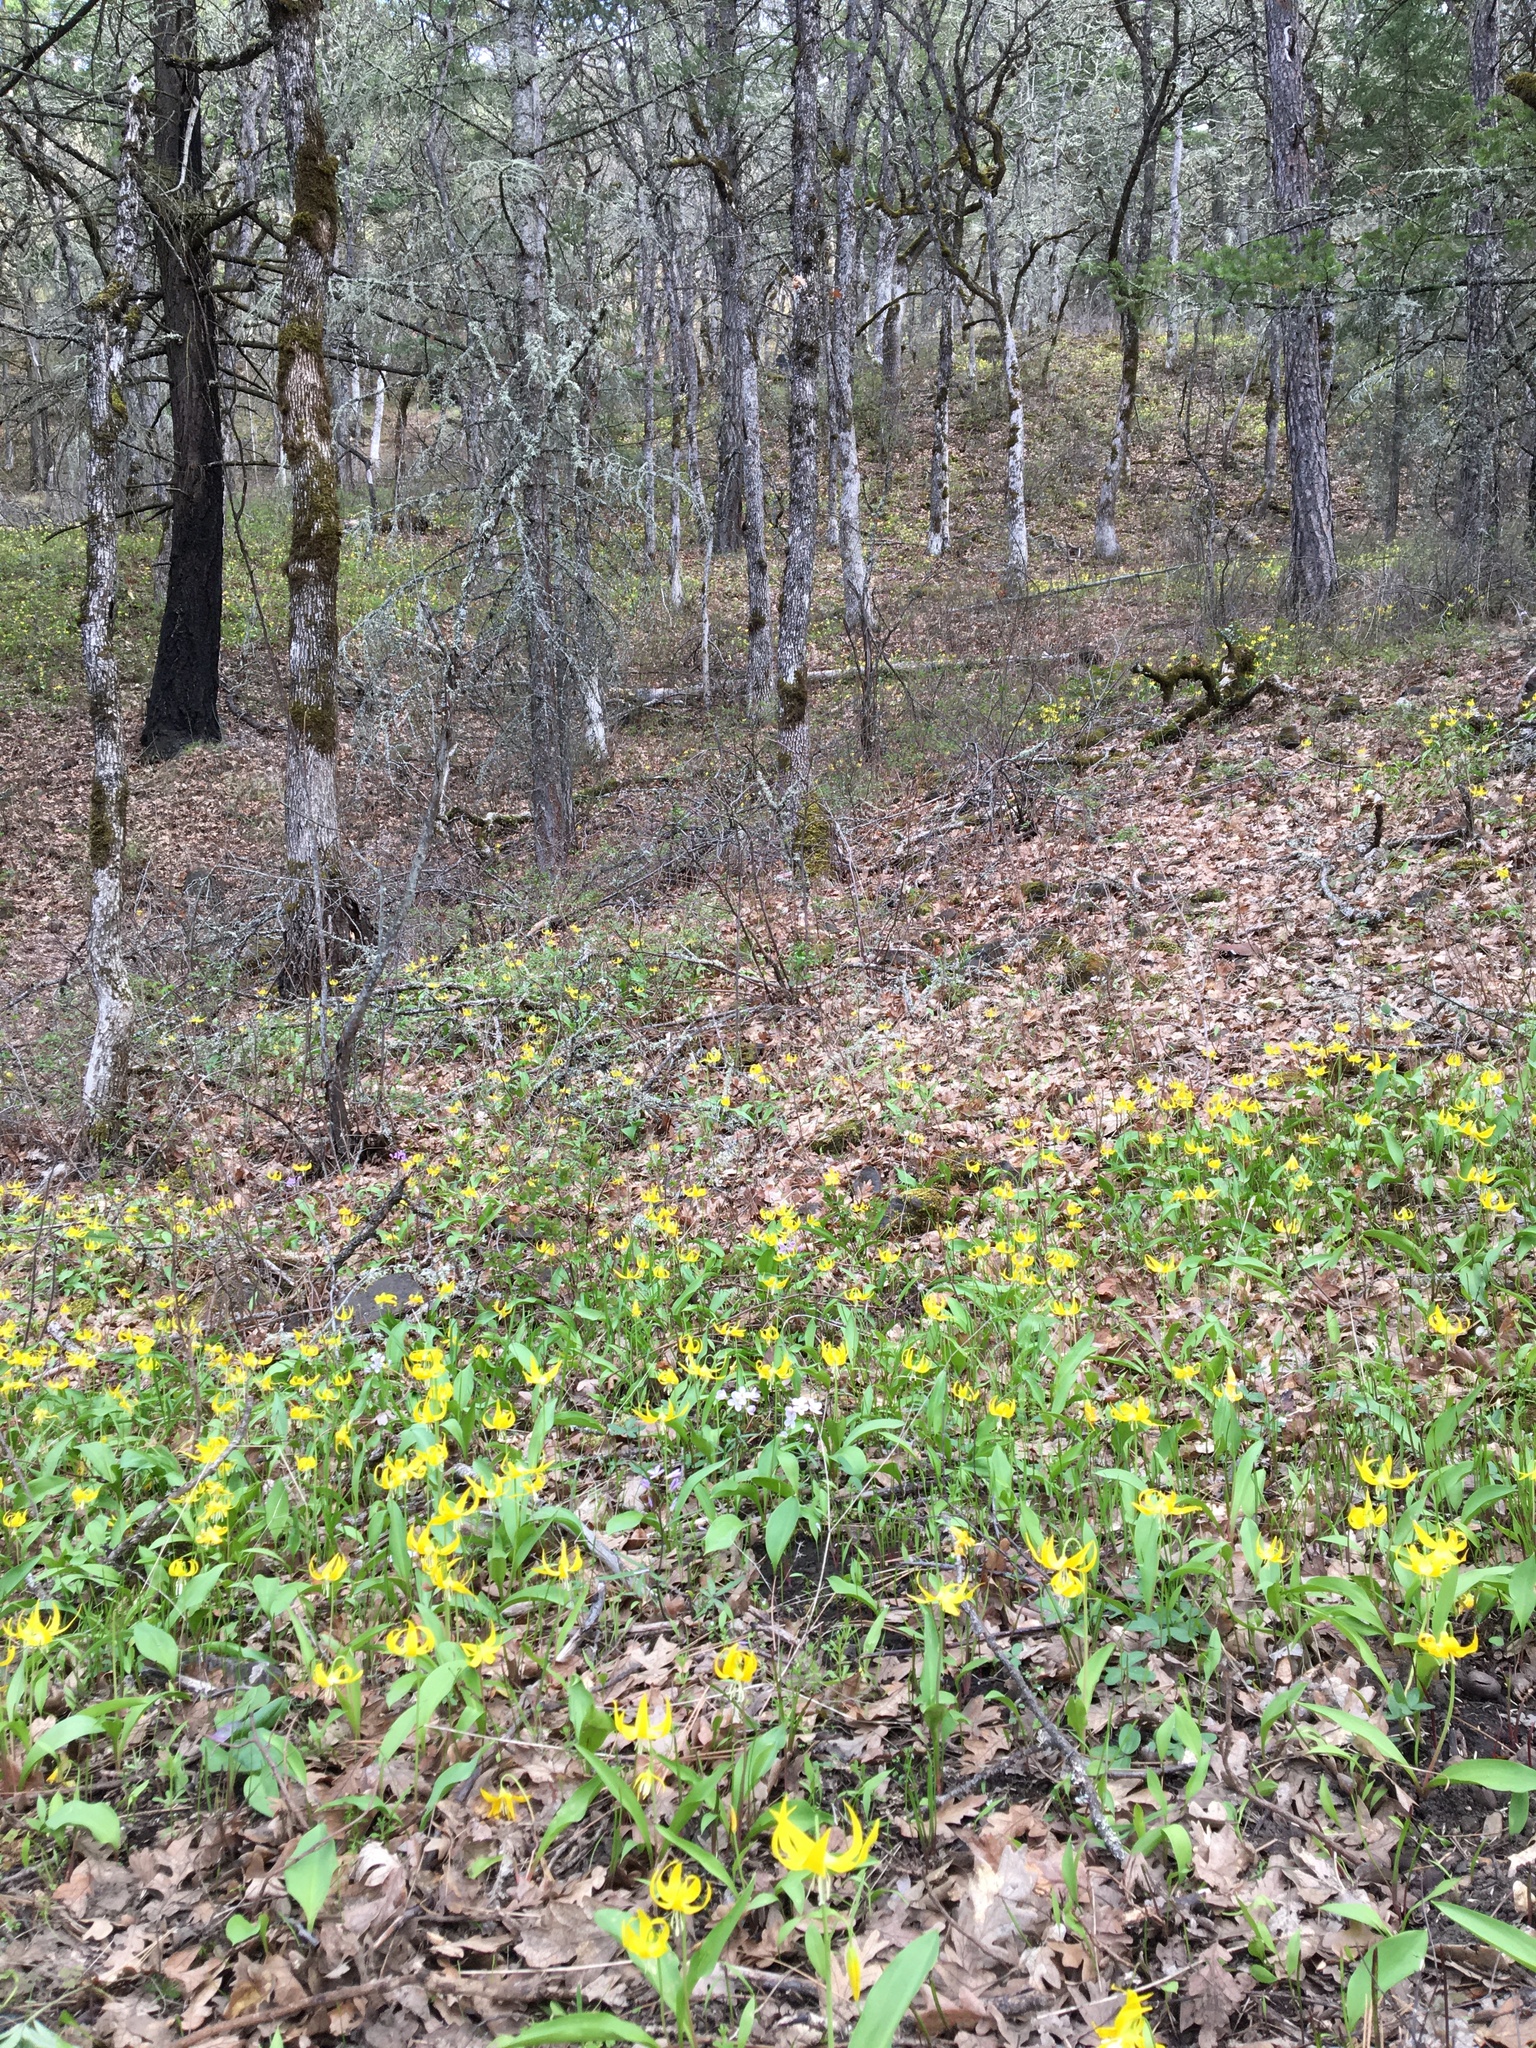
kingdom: Plantae
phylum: Tracheophyta
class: Liliopsida
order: Liliales
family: Liliaceae
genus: Erythronium
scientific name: Erythronium grandiflorum
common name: Avalanche-lily
